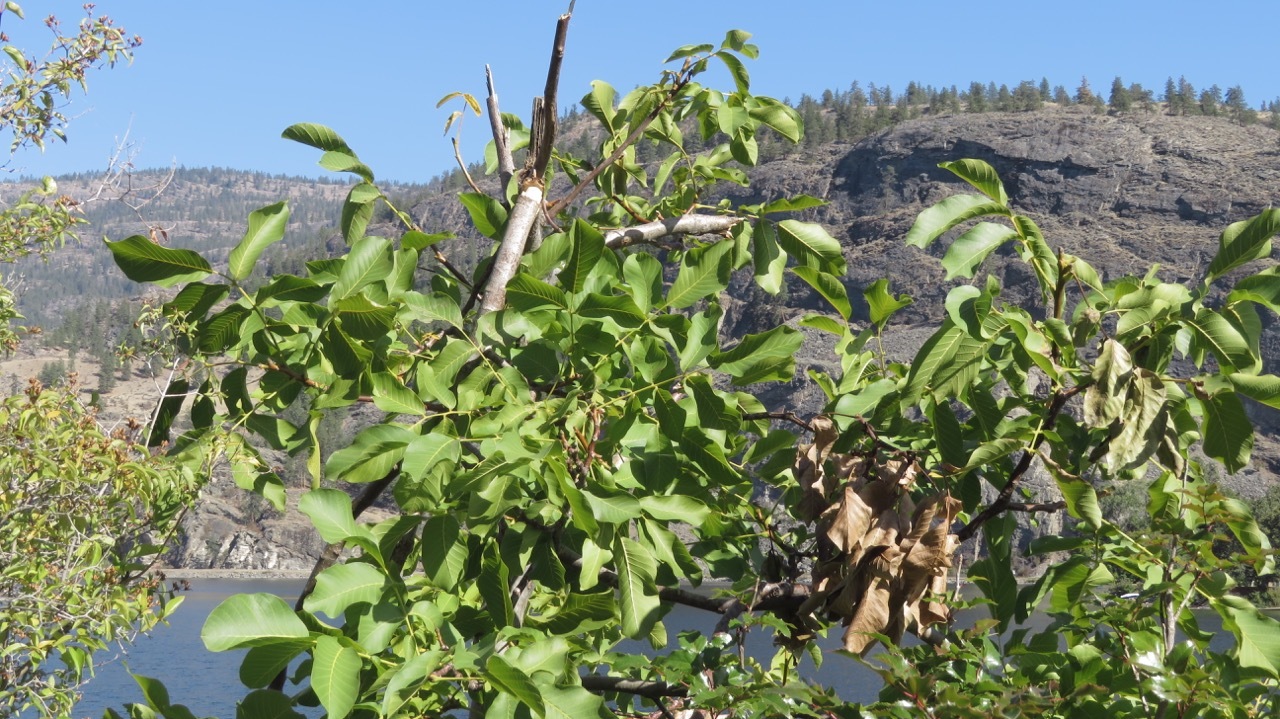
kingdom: Plantae
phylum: Tracheophyta
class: Magnoliopsida
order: Fagales
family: Juglandaceae
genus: Juglans
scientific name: Juglans regia
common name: Walnut
